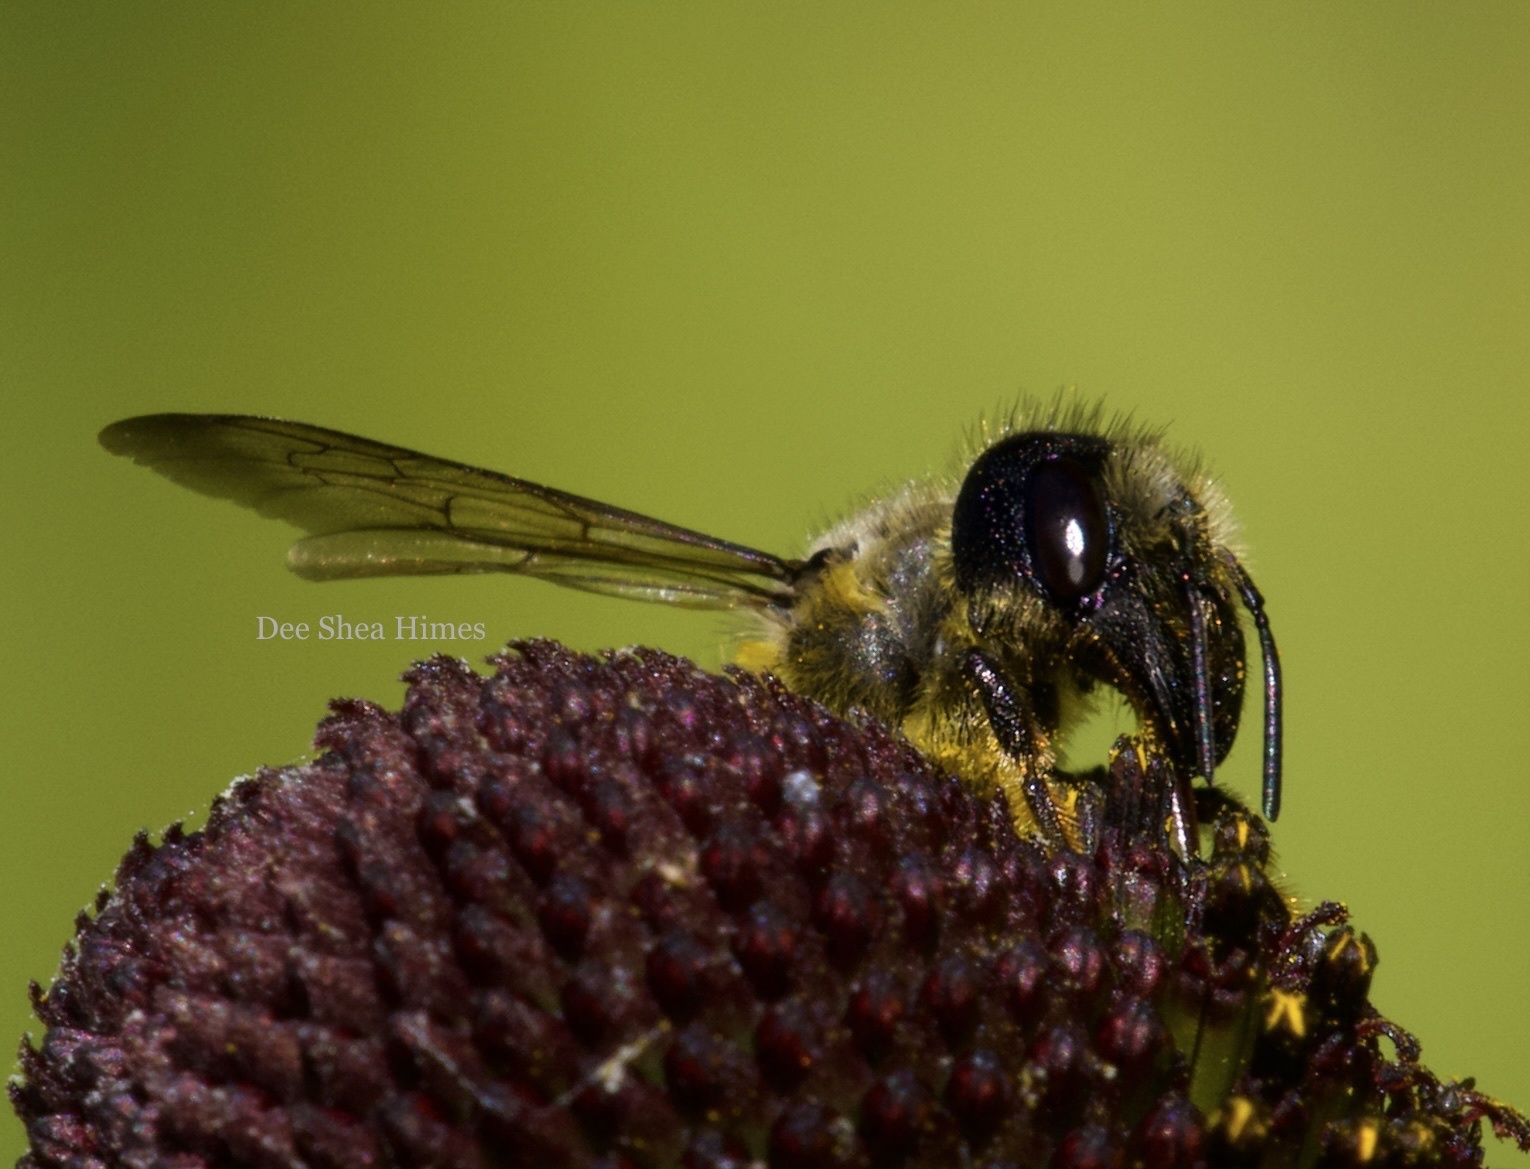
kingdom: Animalia
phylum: Arthropoda
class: Insecta
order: Hymenoptera
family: Megachilidae
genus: Megachile
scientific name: Megachile pugnata
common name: Pugnacious leafcutter bee
